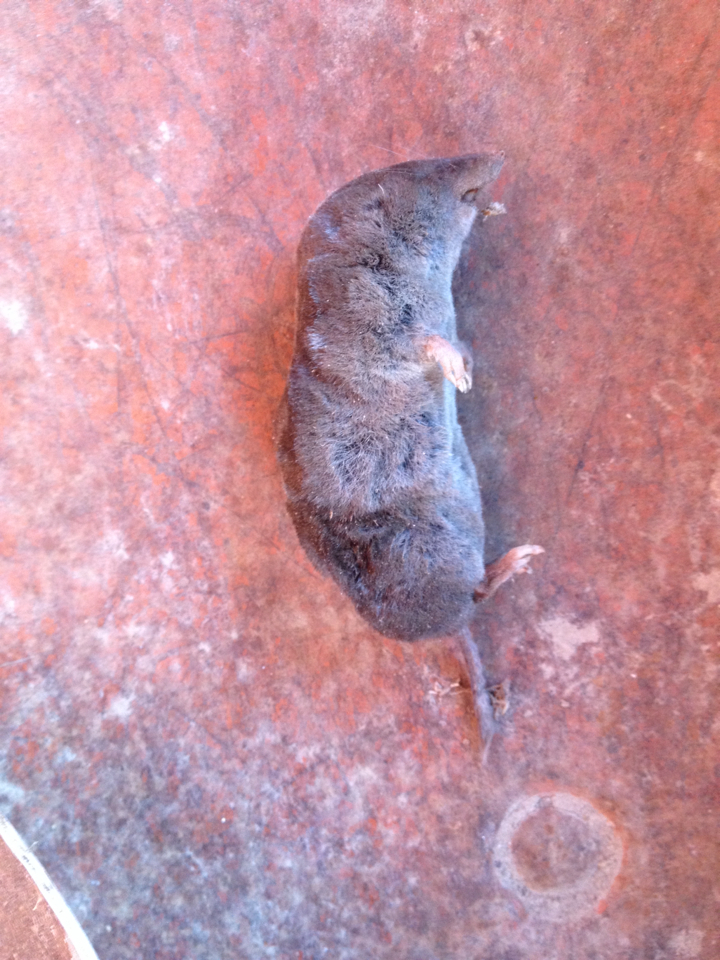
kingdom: Animalia
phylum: Chordata
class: Mammalia
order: Soricomorpha
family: Soricidae
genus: Blarina
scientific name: Blarina brevicauda
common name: Northern short-tailed shrew
